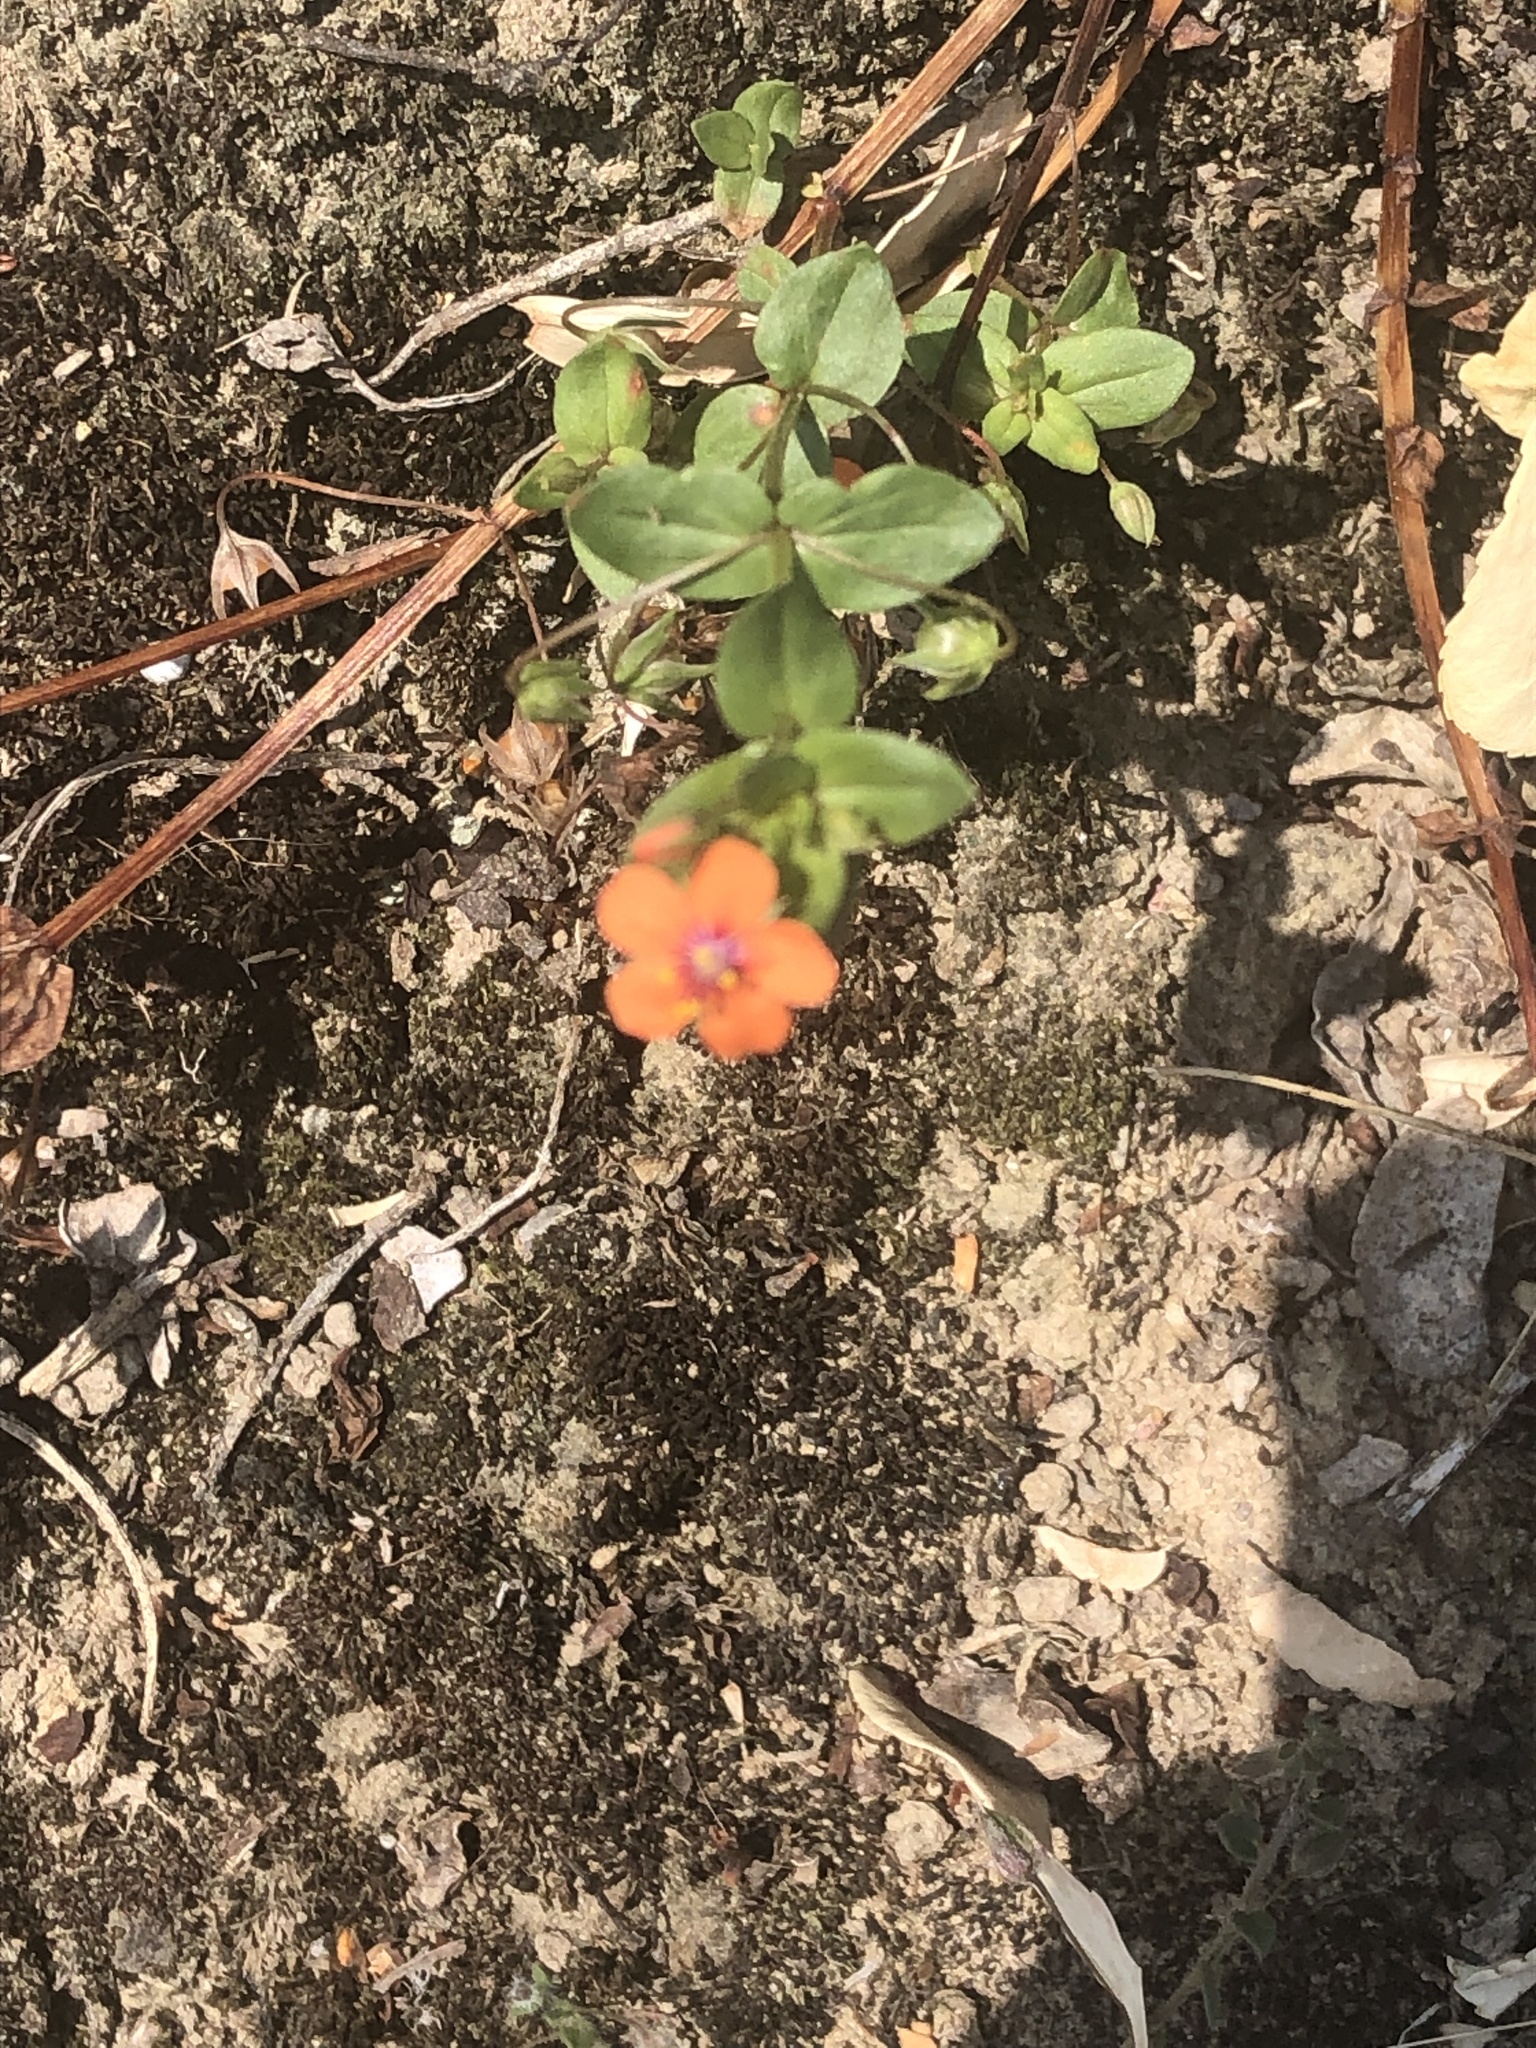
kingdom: Plantae
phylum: Tracheophyta
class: Magnoliopsida
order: Ericales
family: Primulaceae
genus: Lysimachia
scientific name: Lysimachia arvensis
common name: Scarlet pimpernel
